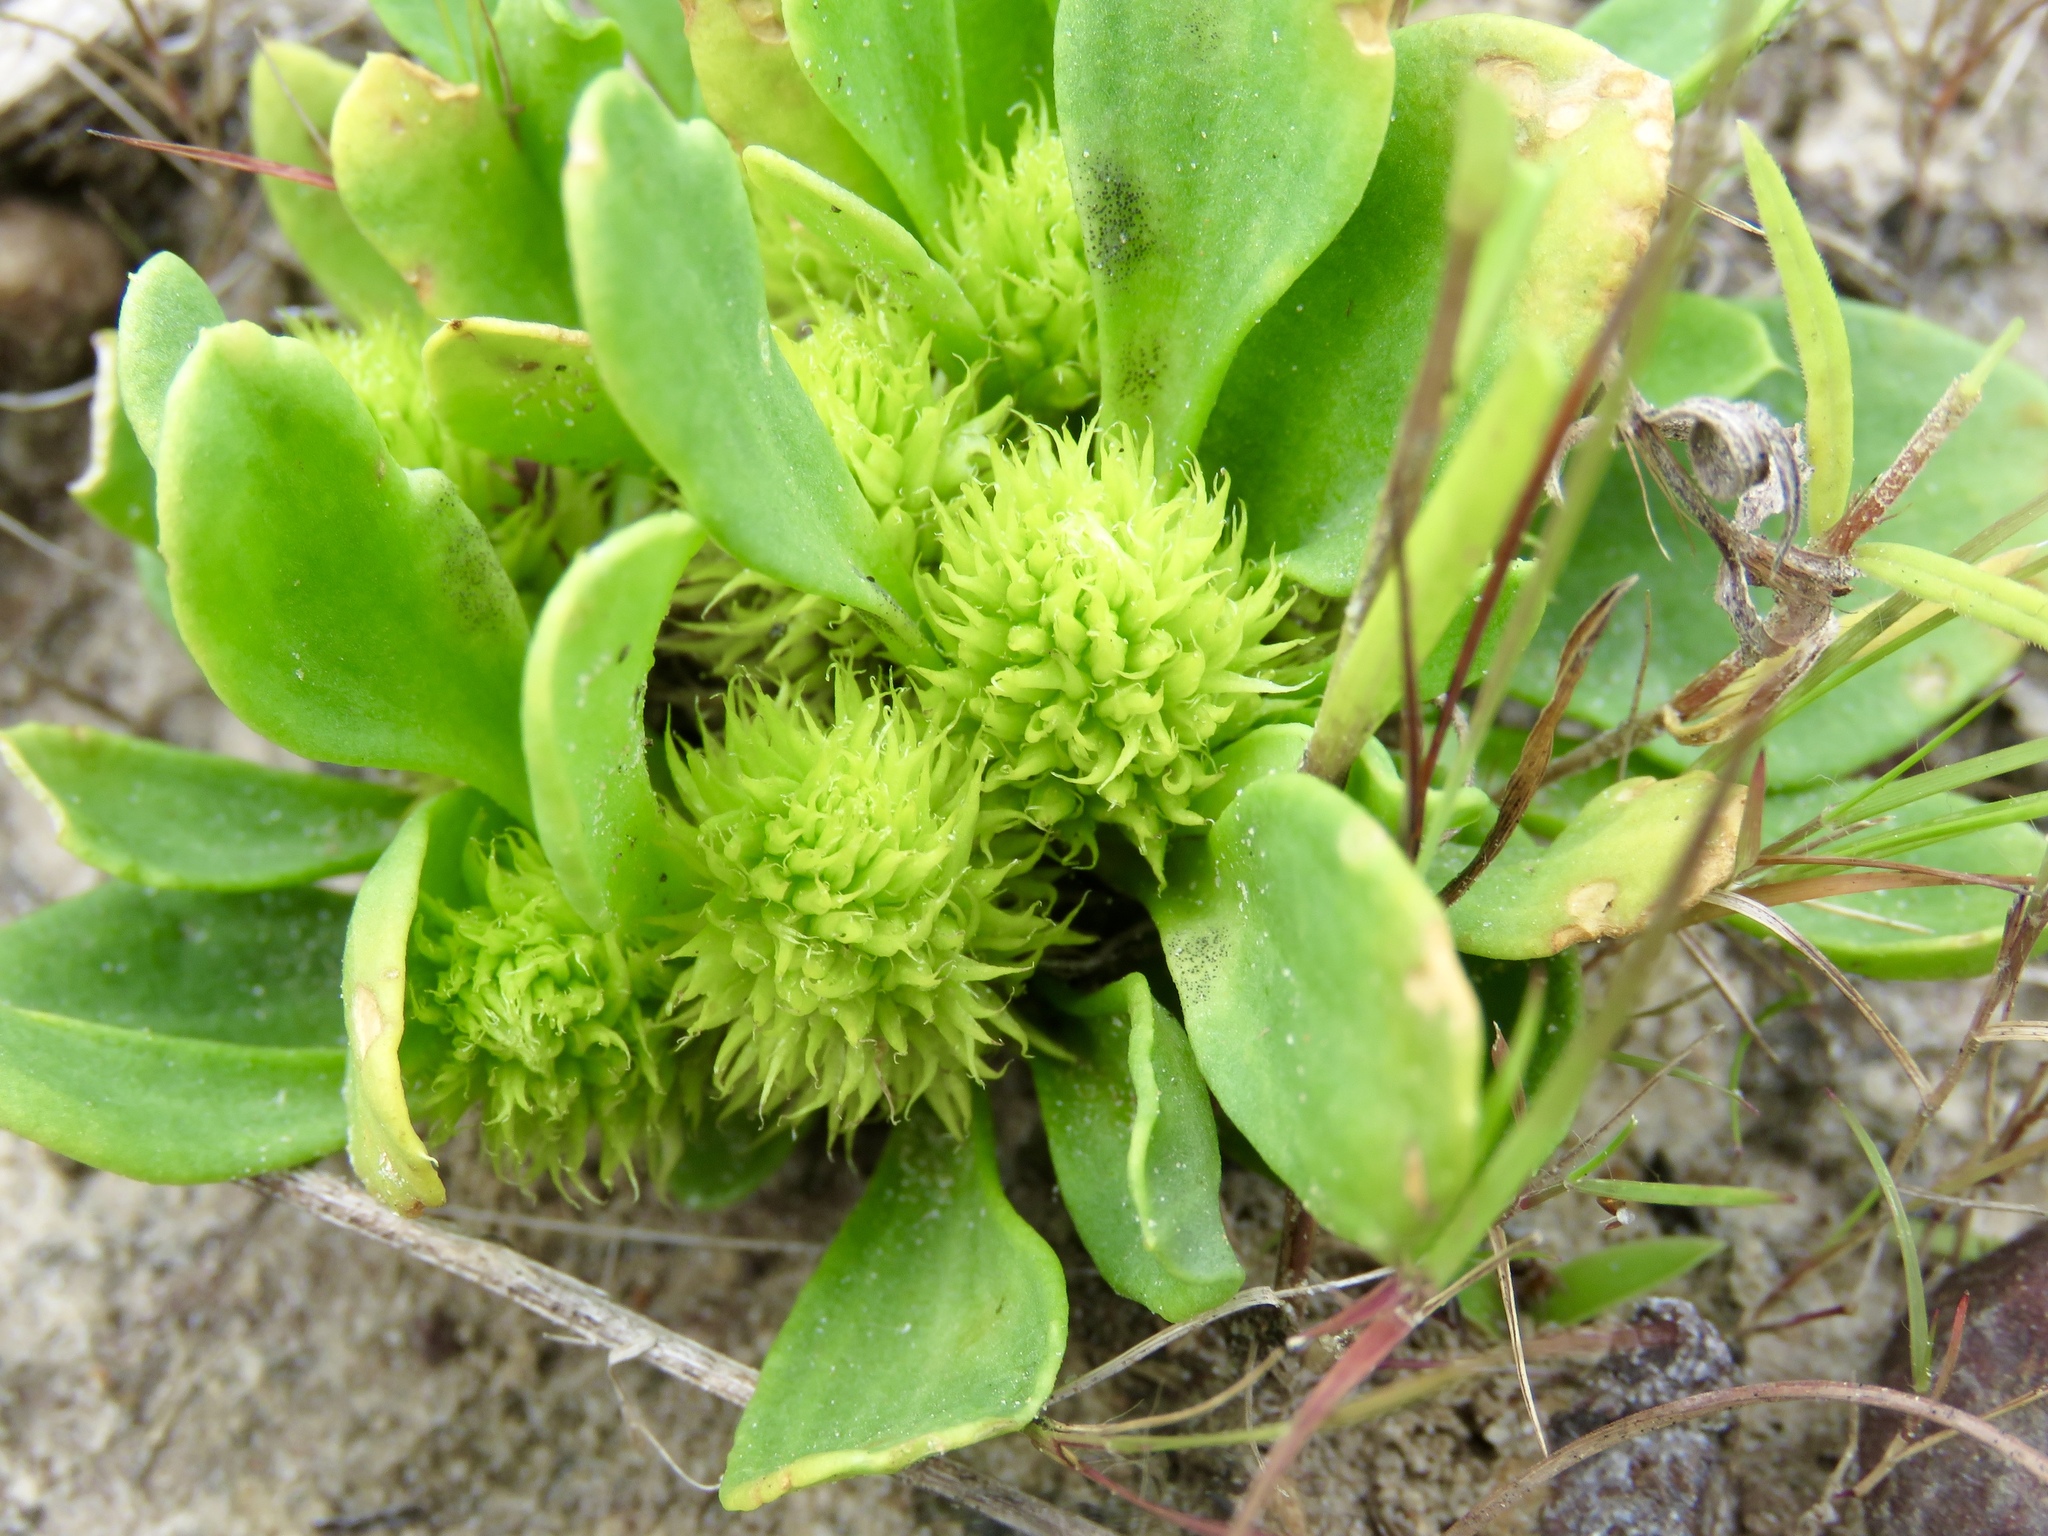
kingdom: Plantae
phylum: Tracheophyta
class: Magnoliopsida
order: Fabales
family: Polygalaceae
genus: Polygala
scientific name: Polygala nana
